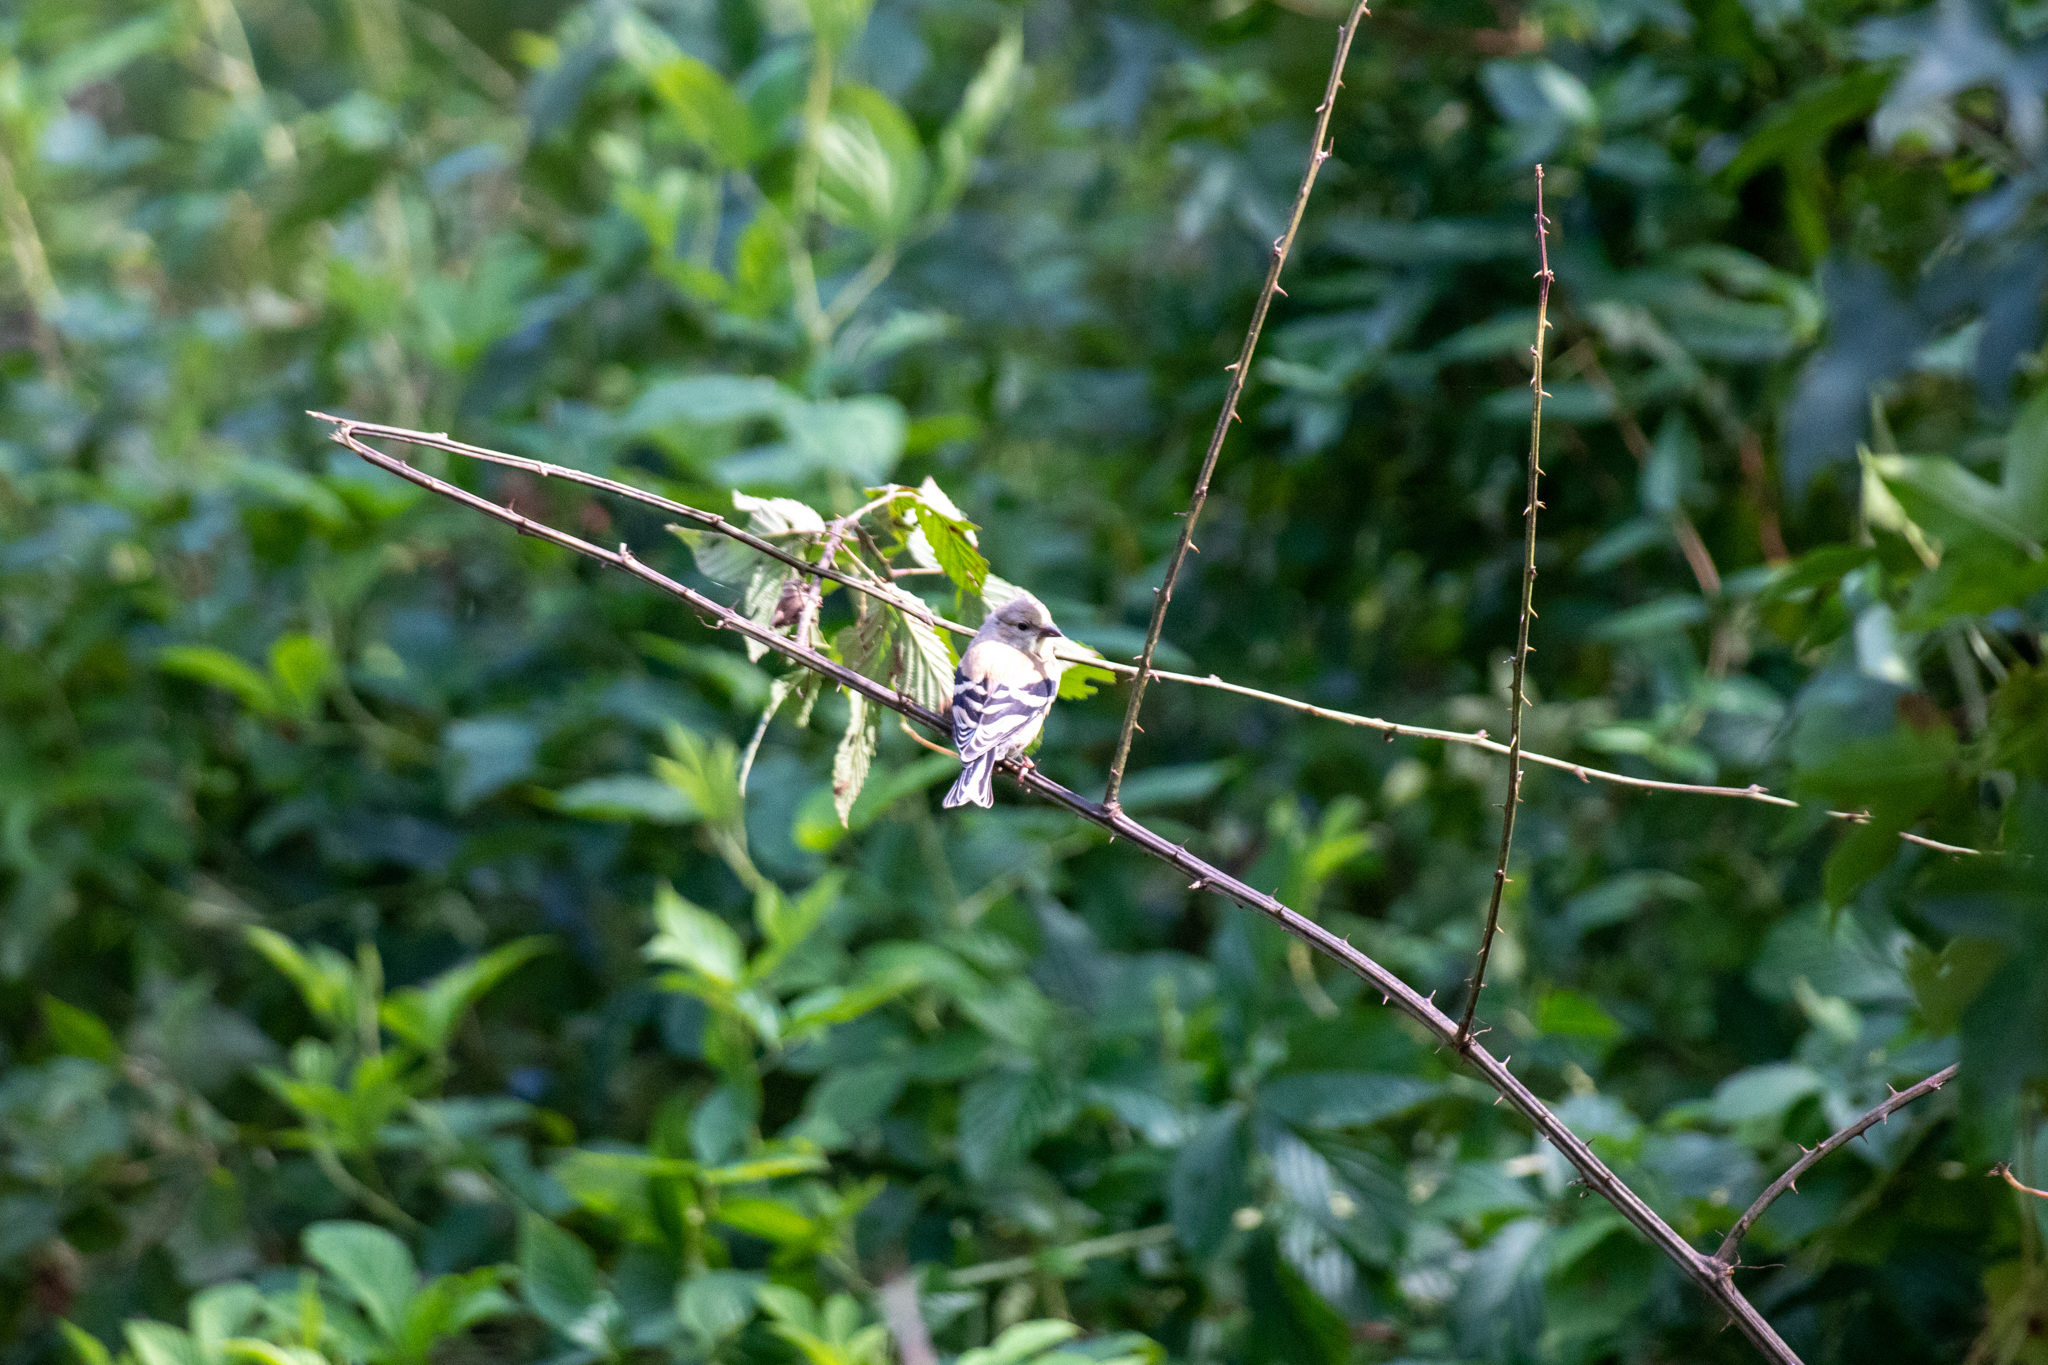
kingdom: Animalia
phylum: Chordata
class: Aves
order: Passeriformes
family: Fringillidae
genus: Spinus
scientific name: Spinus tristis
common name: American goldfinch
